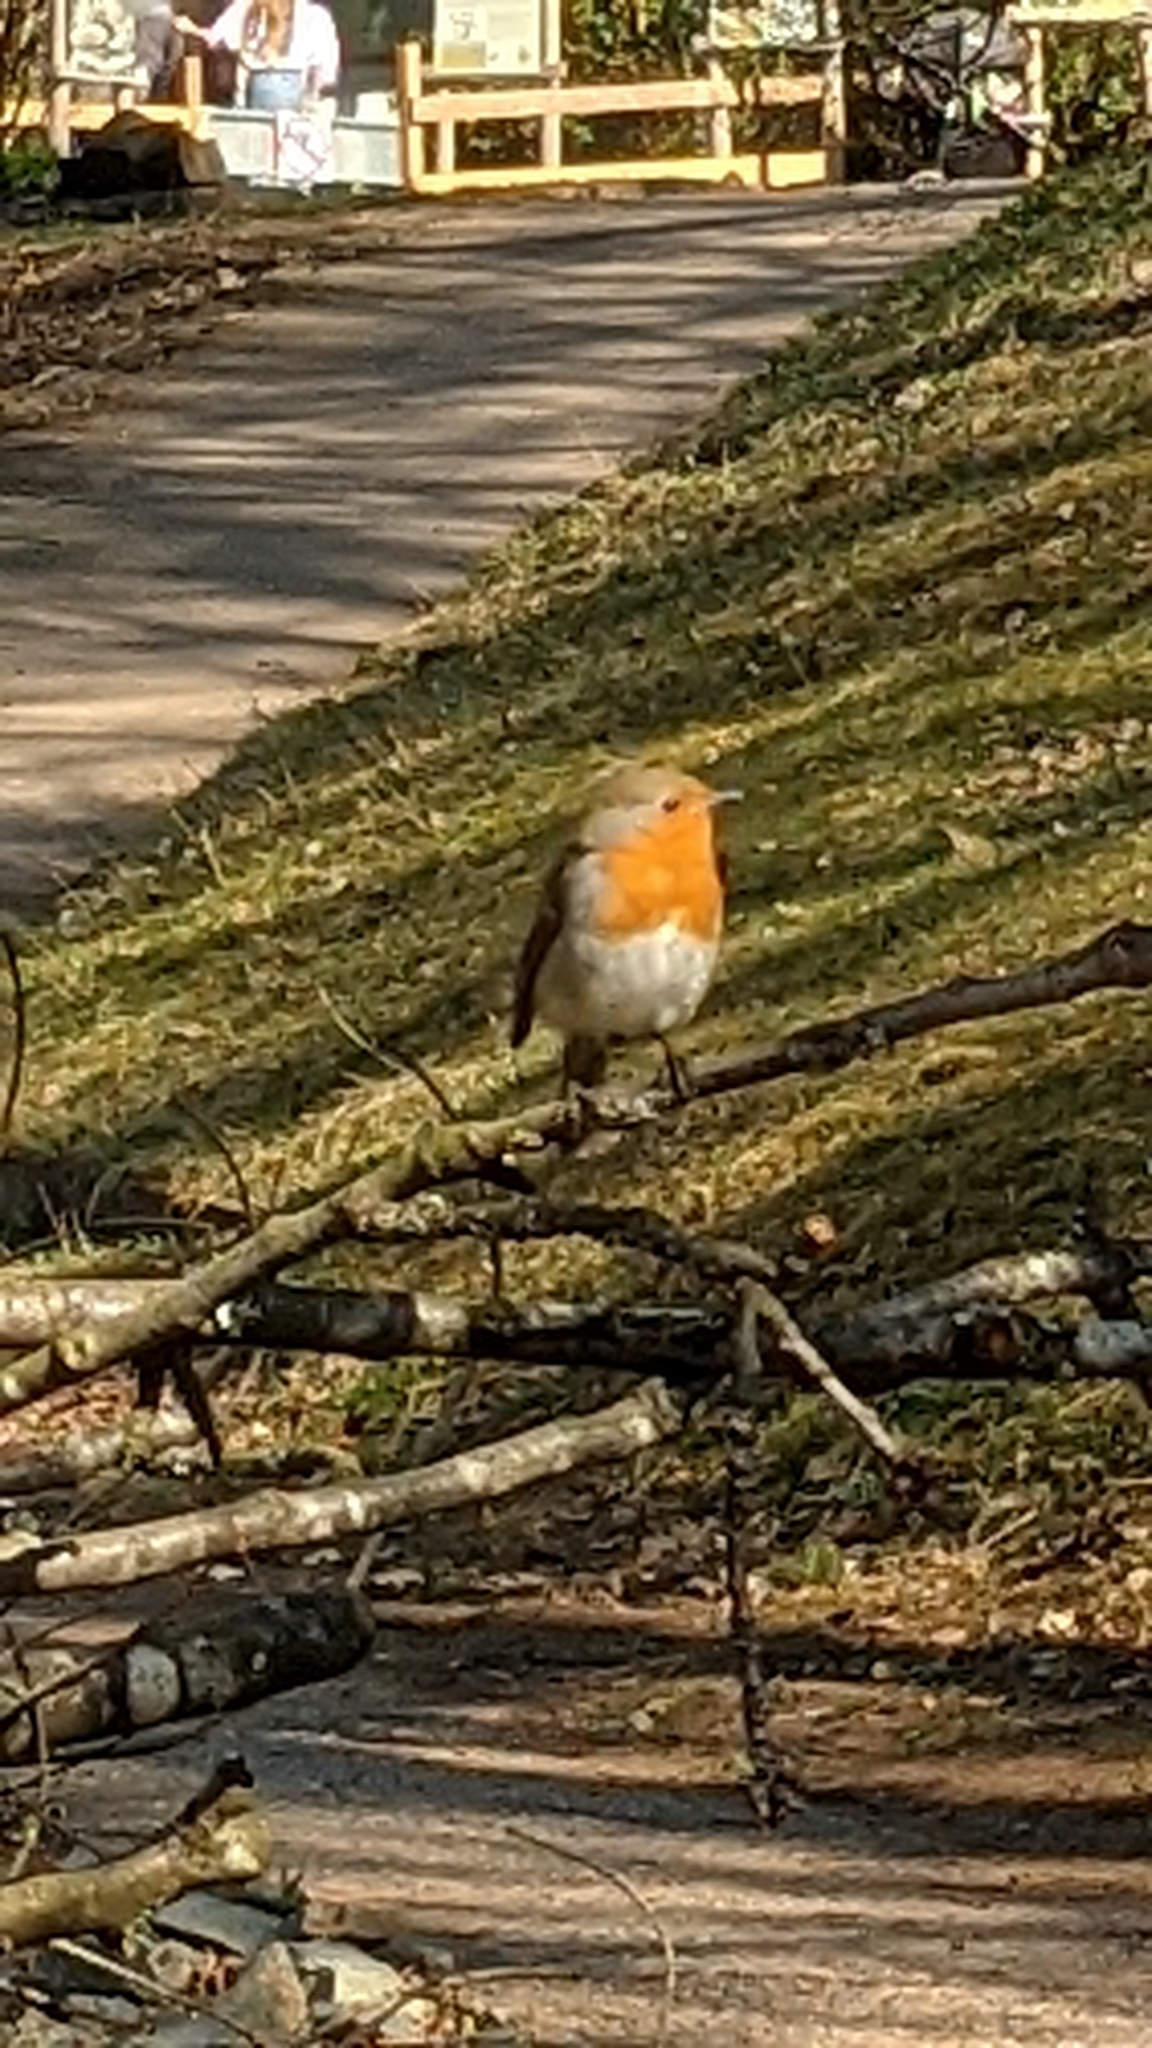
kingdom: Animalia
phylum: Chordata
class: Aves
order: Passeriformes
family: Muscicapidae
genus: Erithacus
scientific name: Erithacus rubecula
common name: European robin
